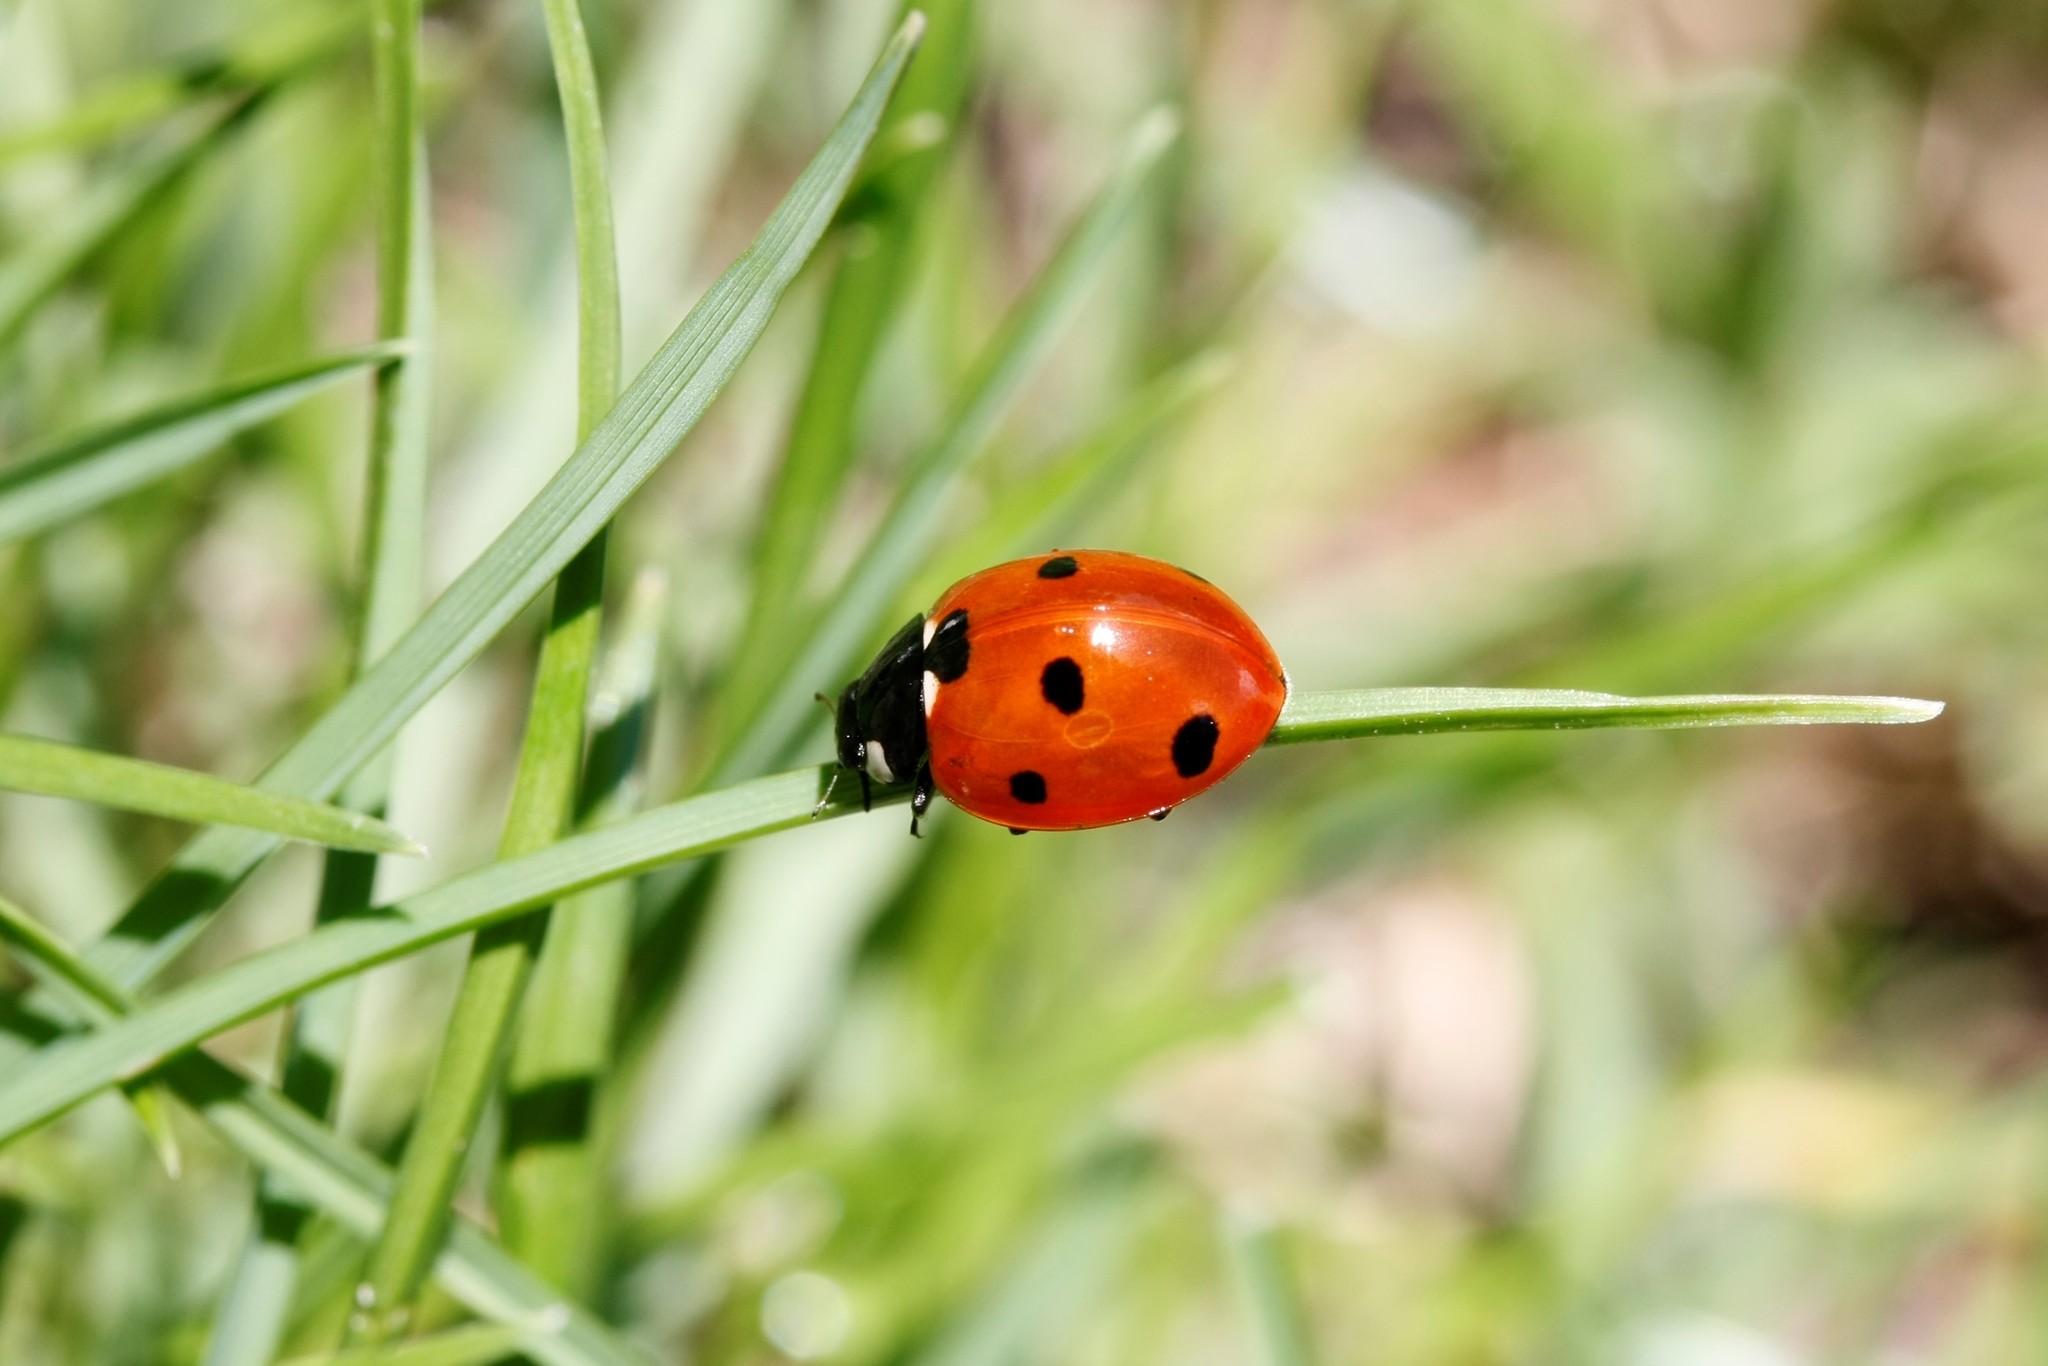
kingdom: Animalia
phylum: Arthropoda
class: Insecta
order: Coleoptera
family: Coccinellidae
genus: Coccinella
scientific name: Coccinella septempunctata
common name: Sevenspotted lady beetle
